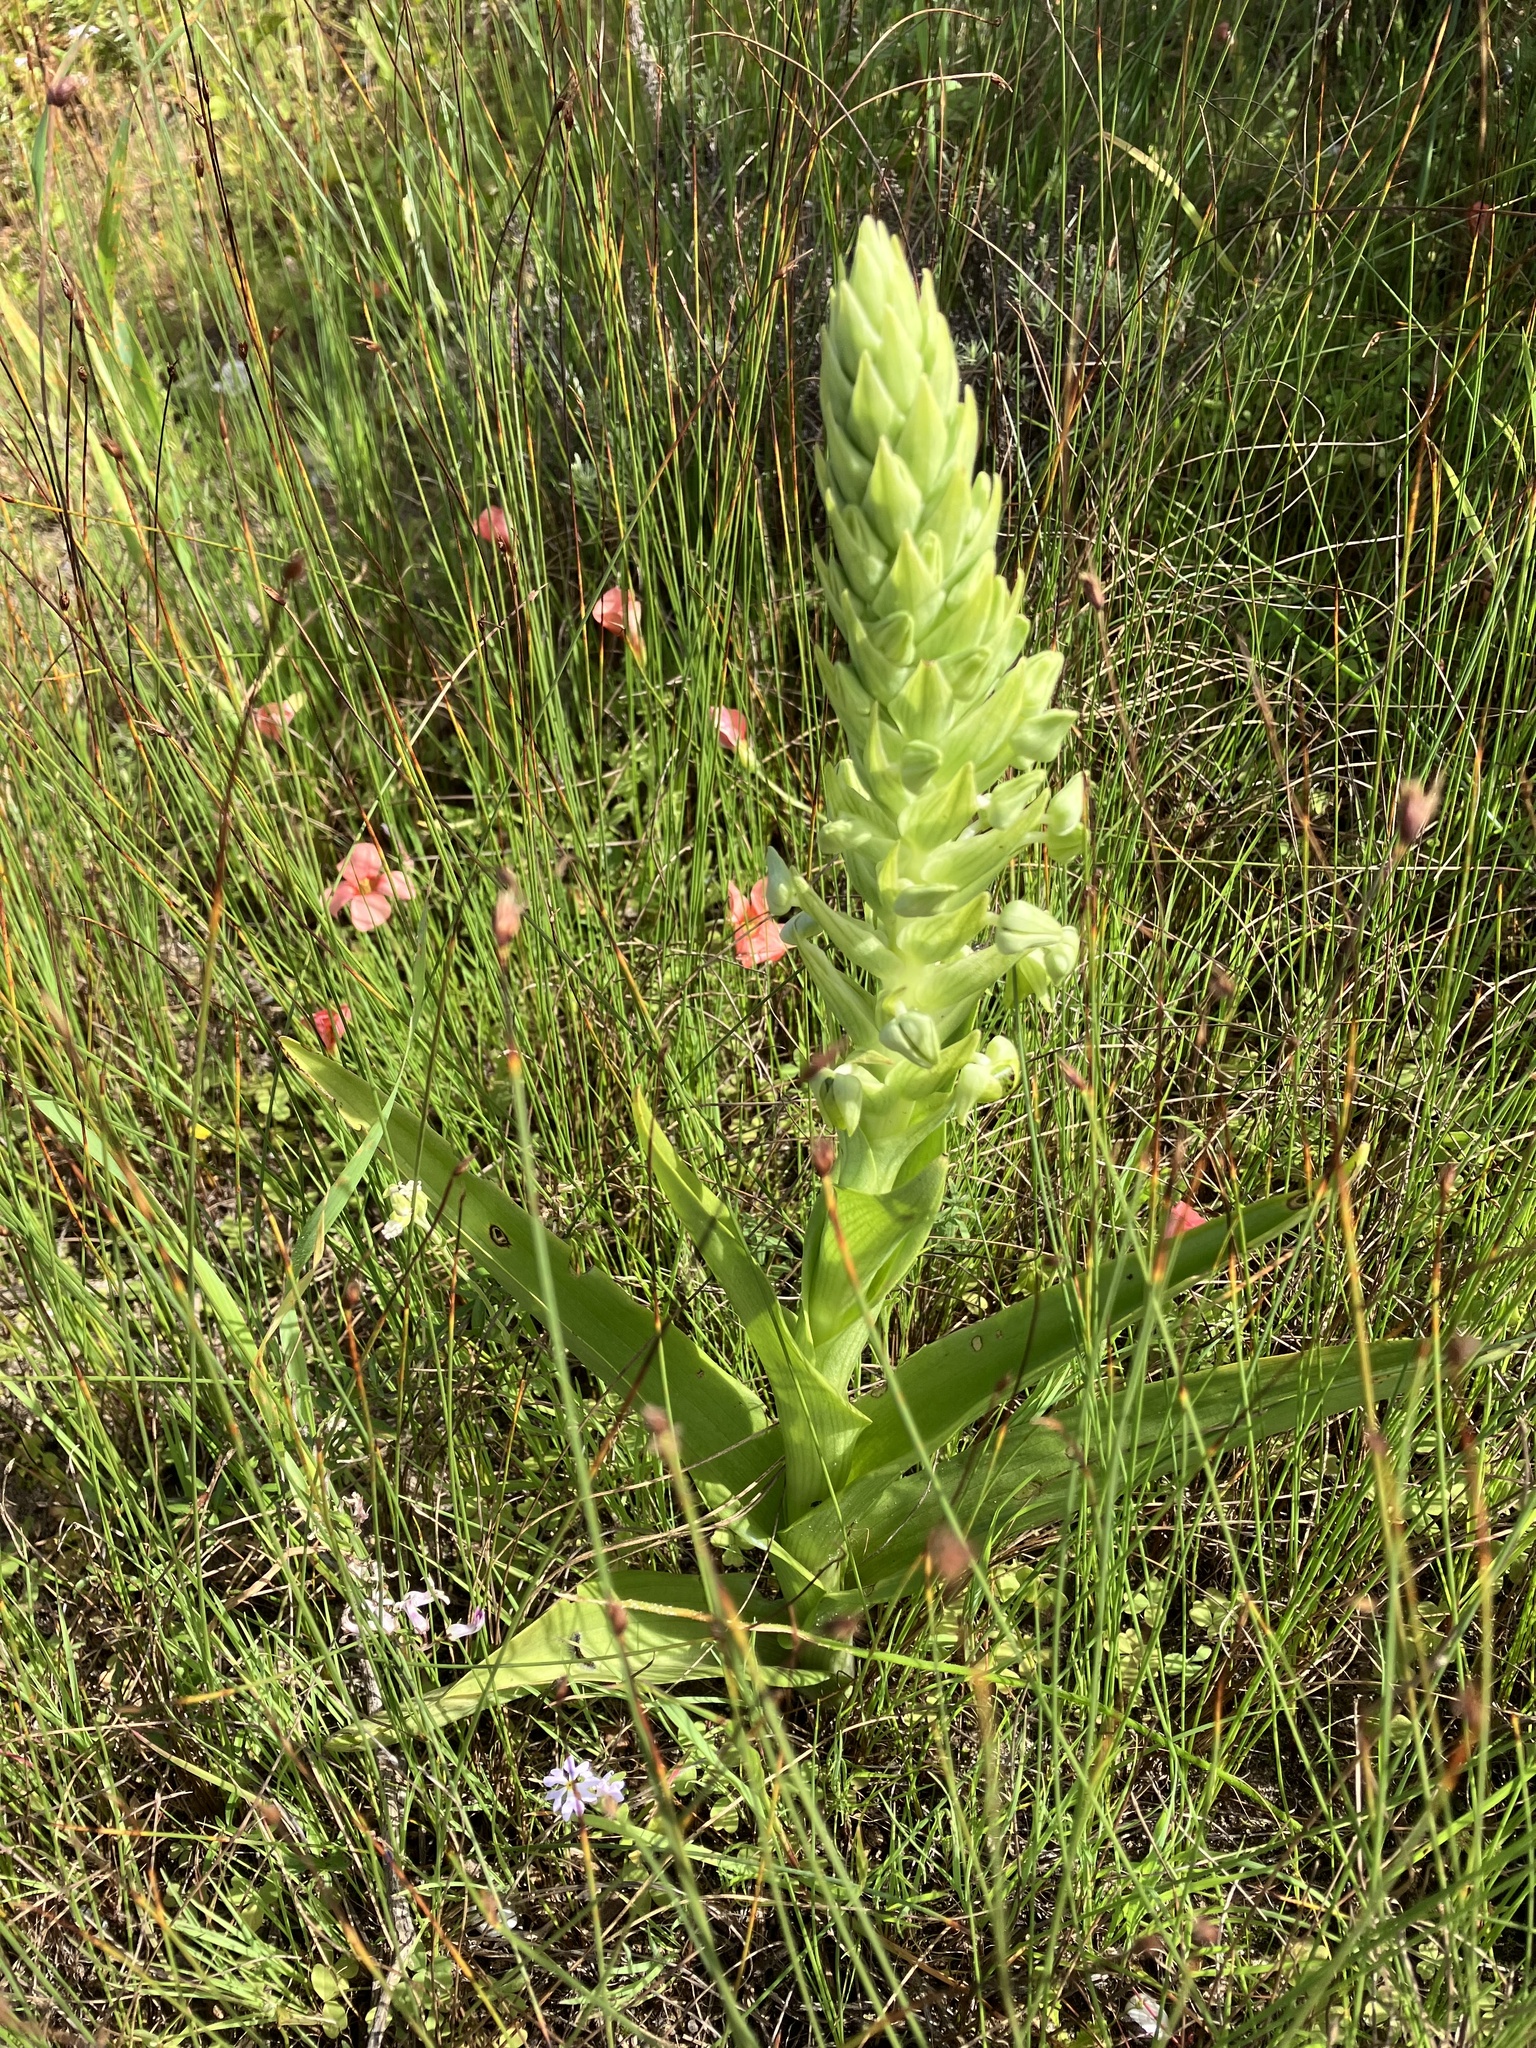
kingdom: Plantae
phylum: Tracheophyta
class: Liliopsida
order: Asparagales
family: Orchidaceae
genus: Pterygodium
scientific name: Pterygodium inversum
